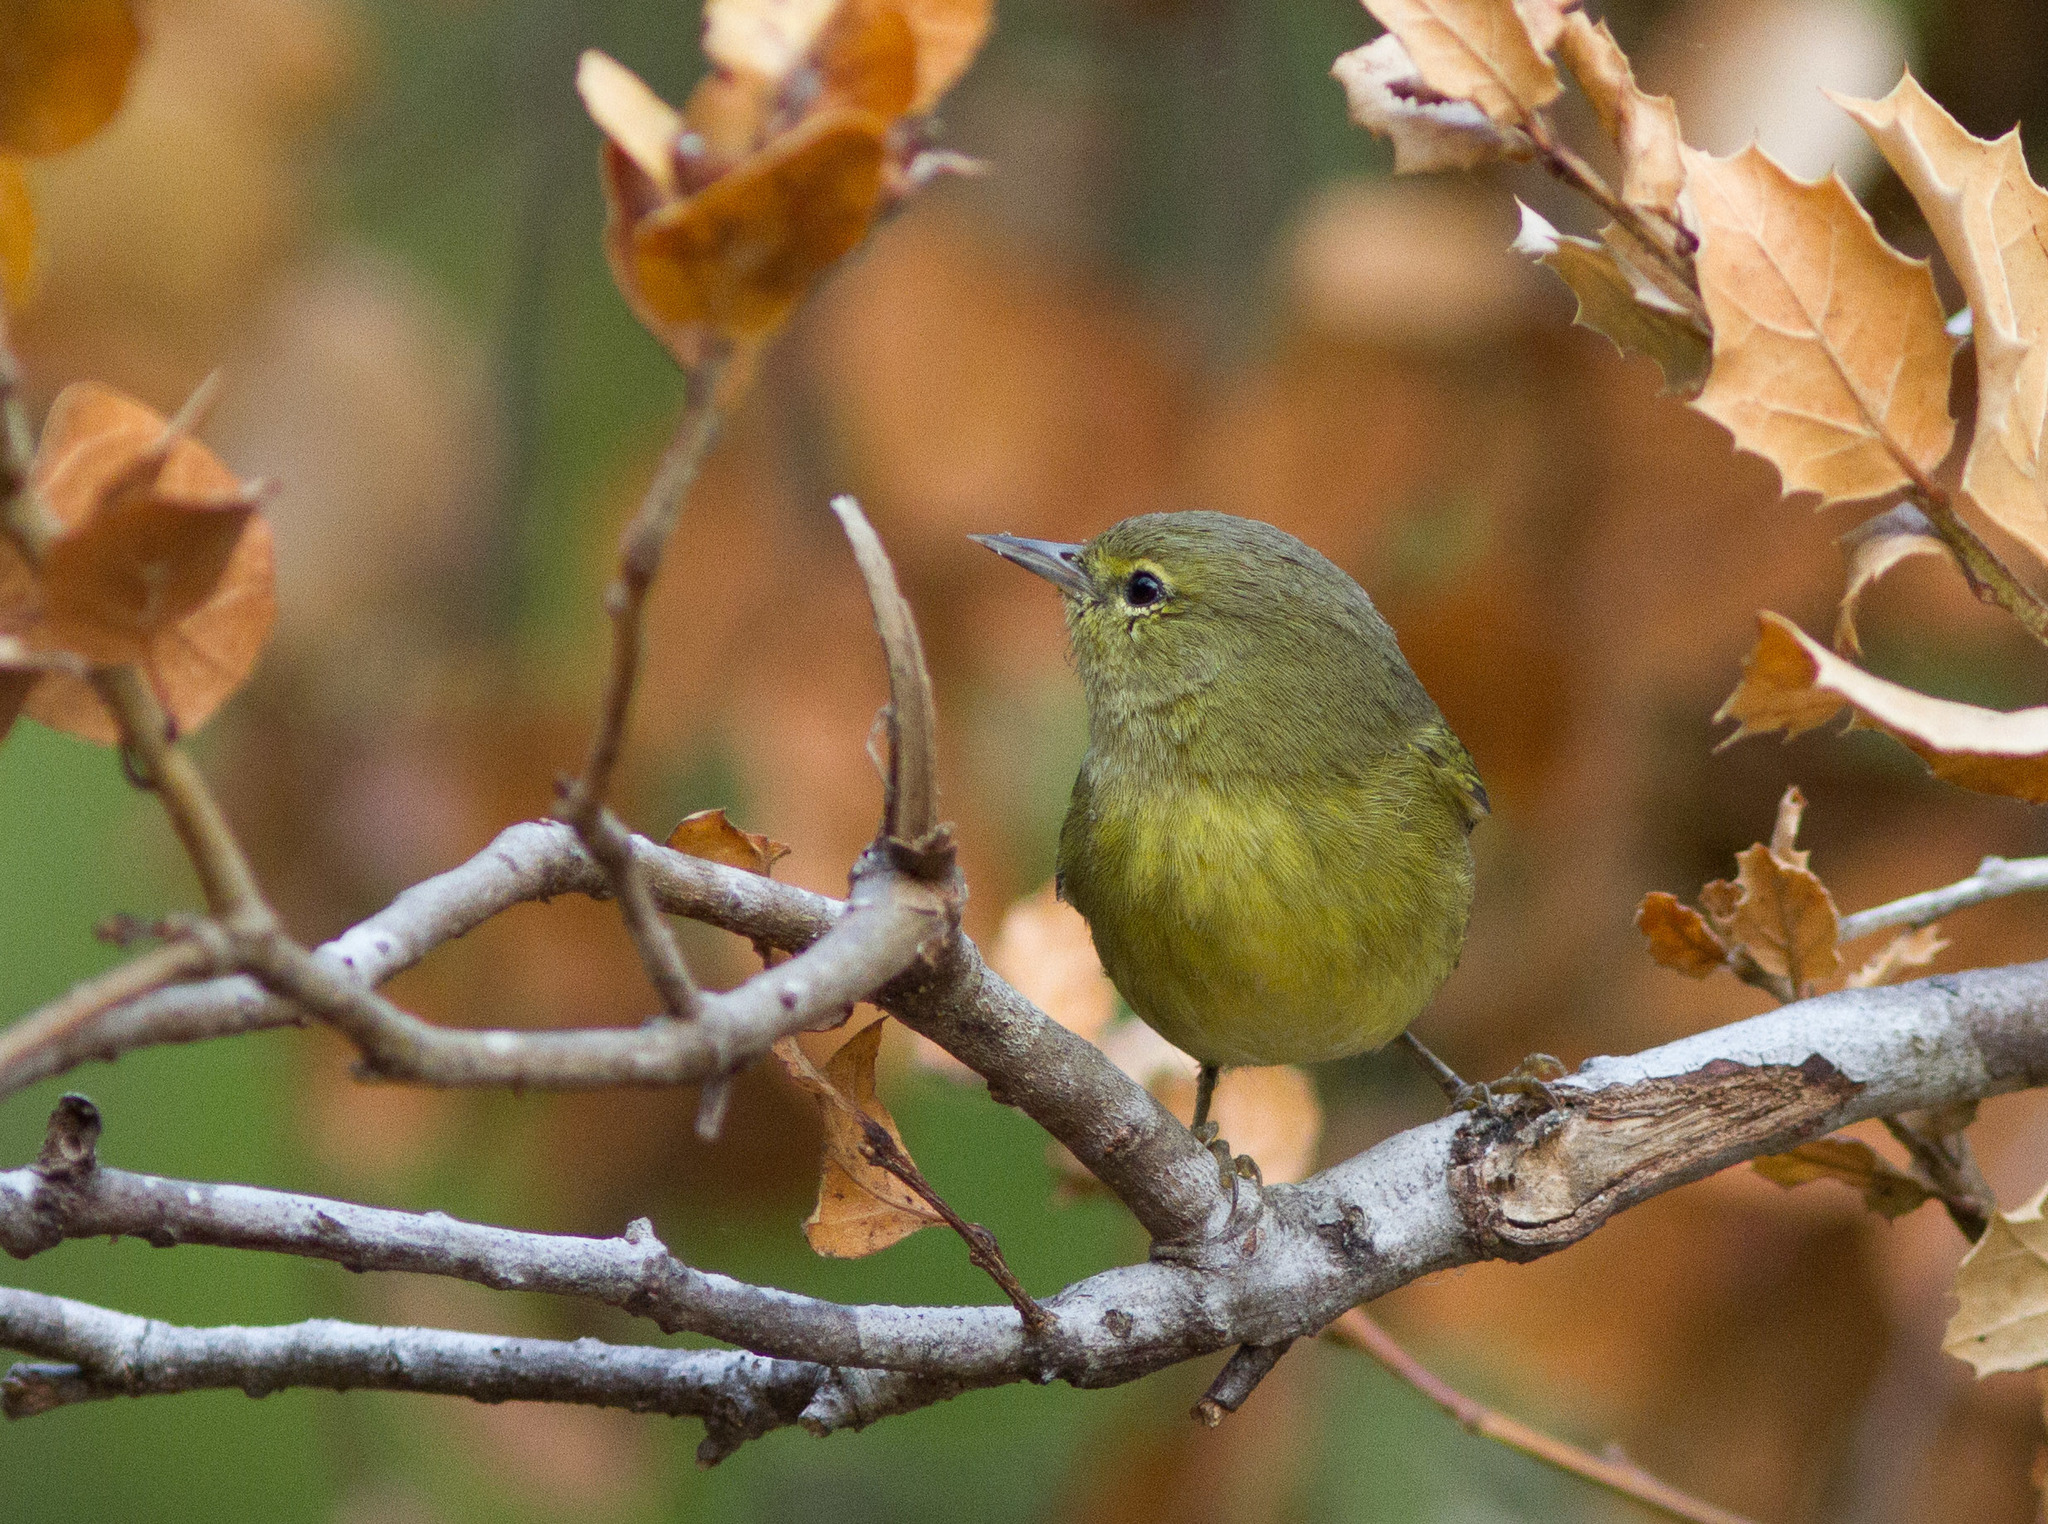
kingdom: Animalia
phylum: Chordata
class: Aves
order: Passeriformes
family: Parulidae
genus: Leiothlypis
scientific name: Leiothlypis celata
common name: Orange-crowned warbler
